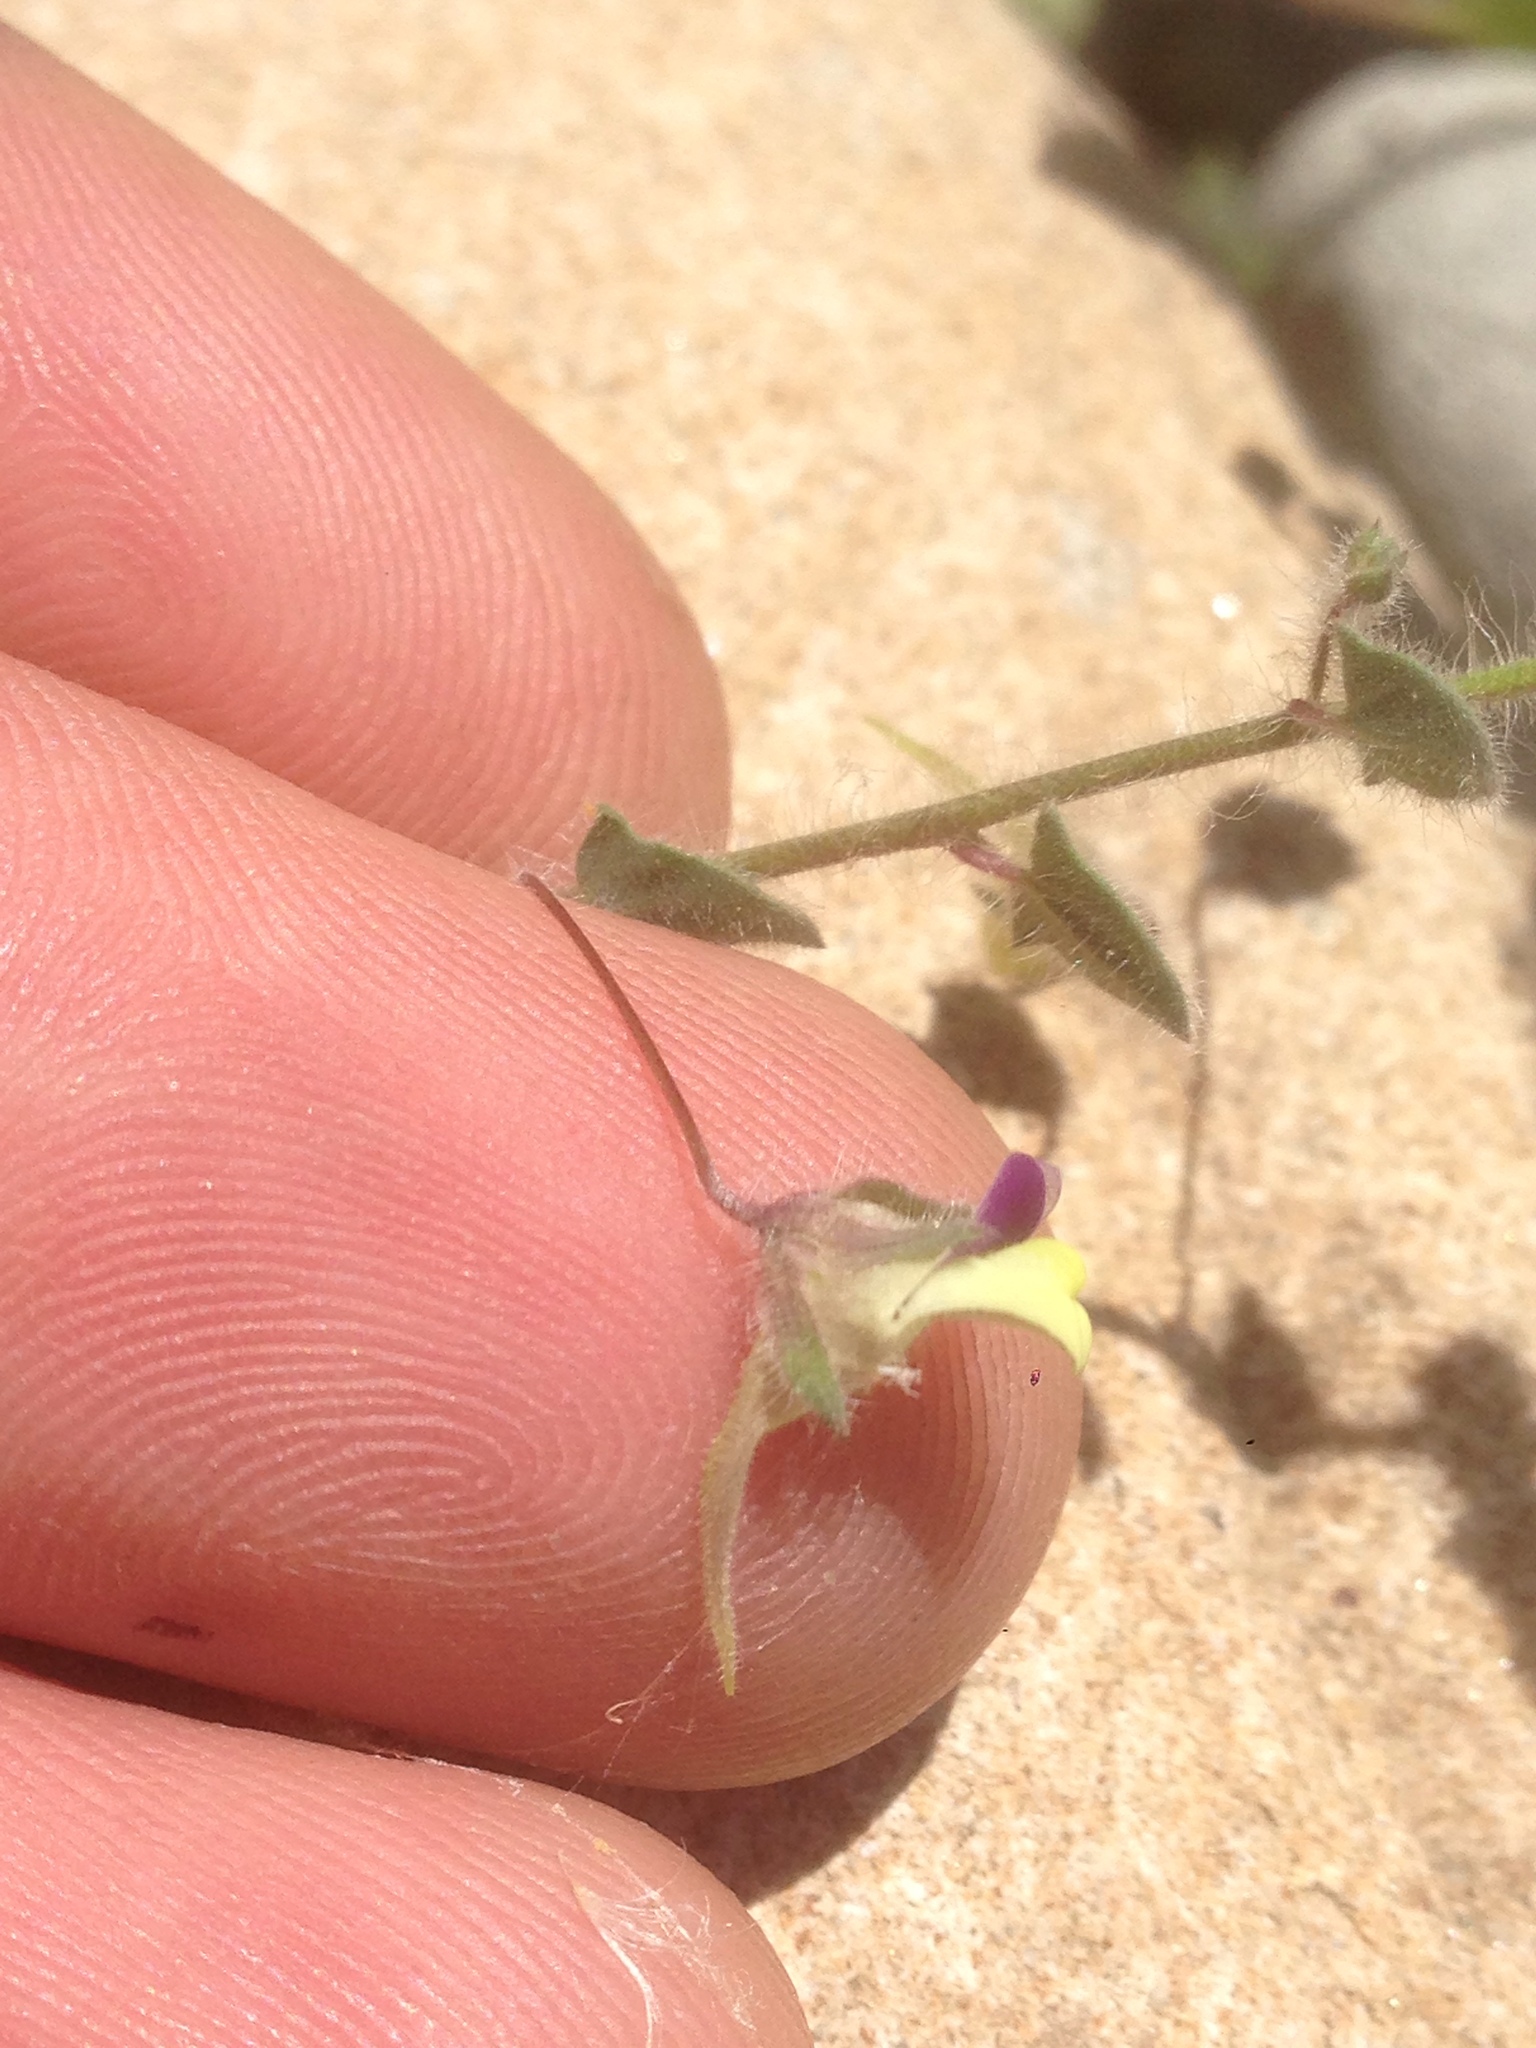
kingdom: Plantae
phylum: Tracheophyta
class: Magnoliopsida
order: Lamiales
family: Plantaginaceae
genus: Kickxia
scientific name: Kickxia elatine
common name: Sharp-leaved fluellen
